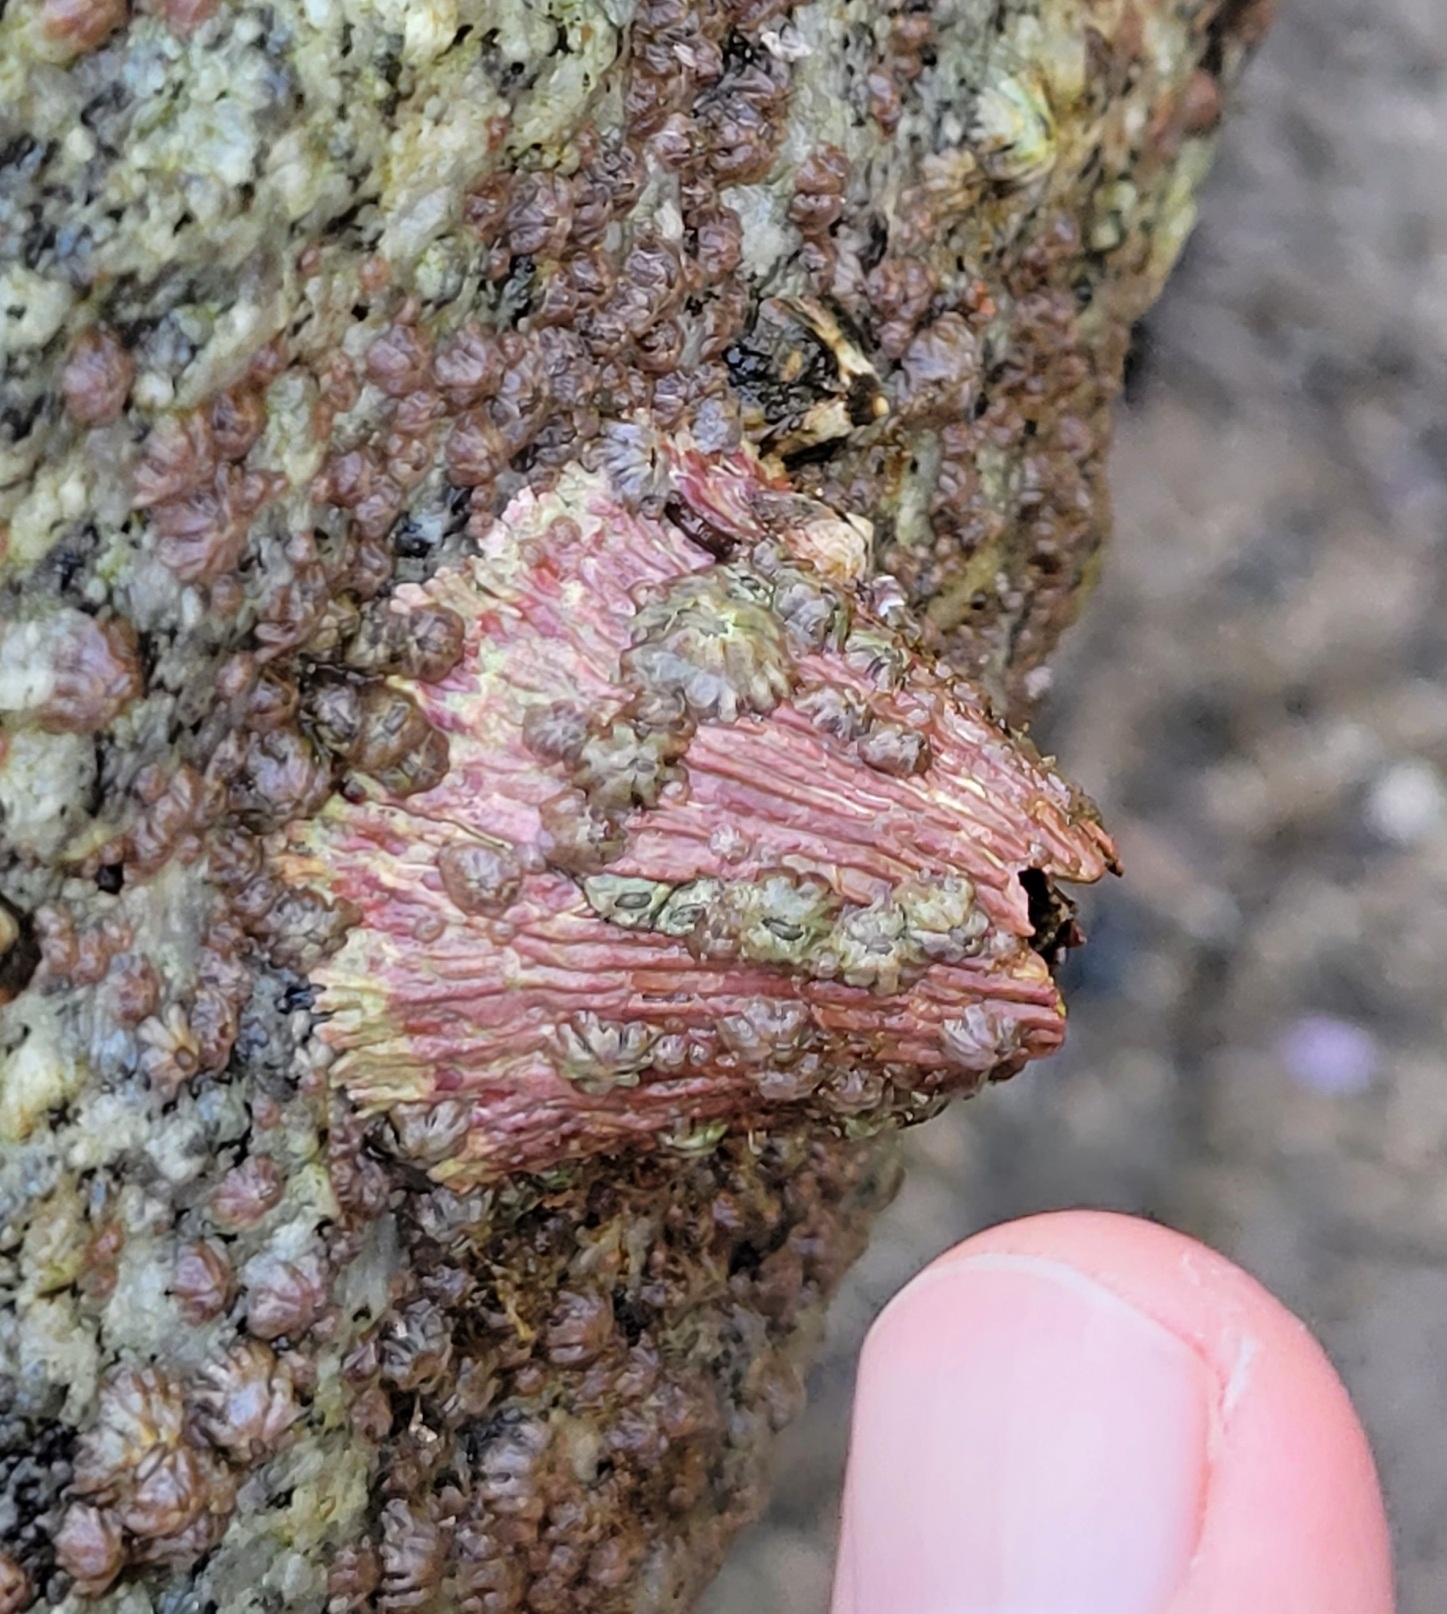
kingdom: Animalia
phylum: Arthropoda
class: Maxillopoda
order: Sessilia
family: Tetraclitidae
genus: Tetraclita
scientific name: Tetraclita rubescens
